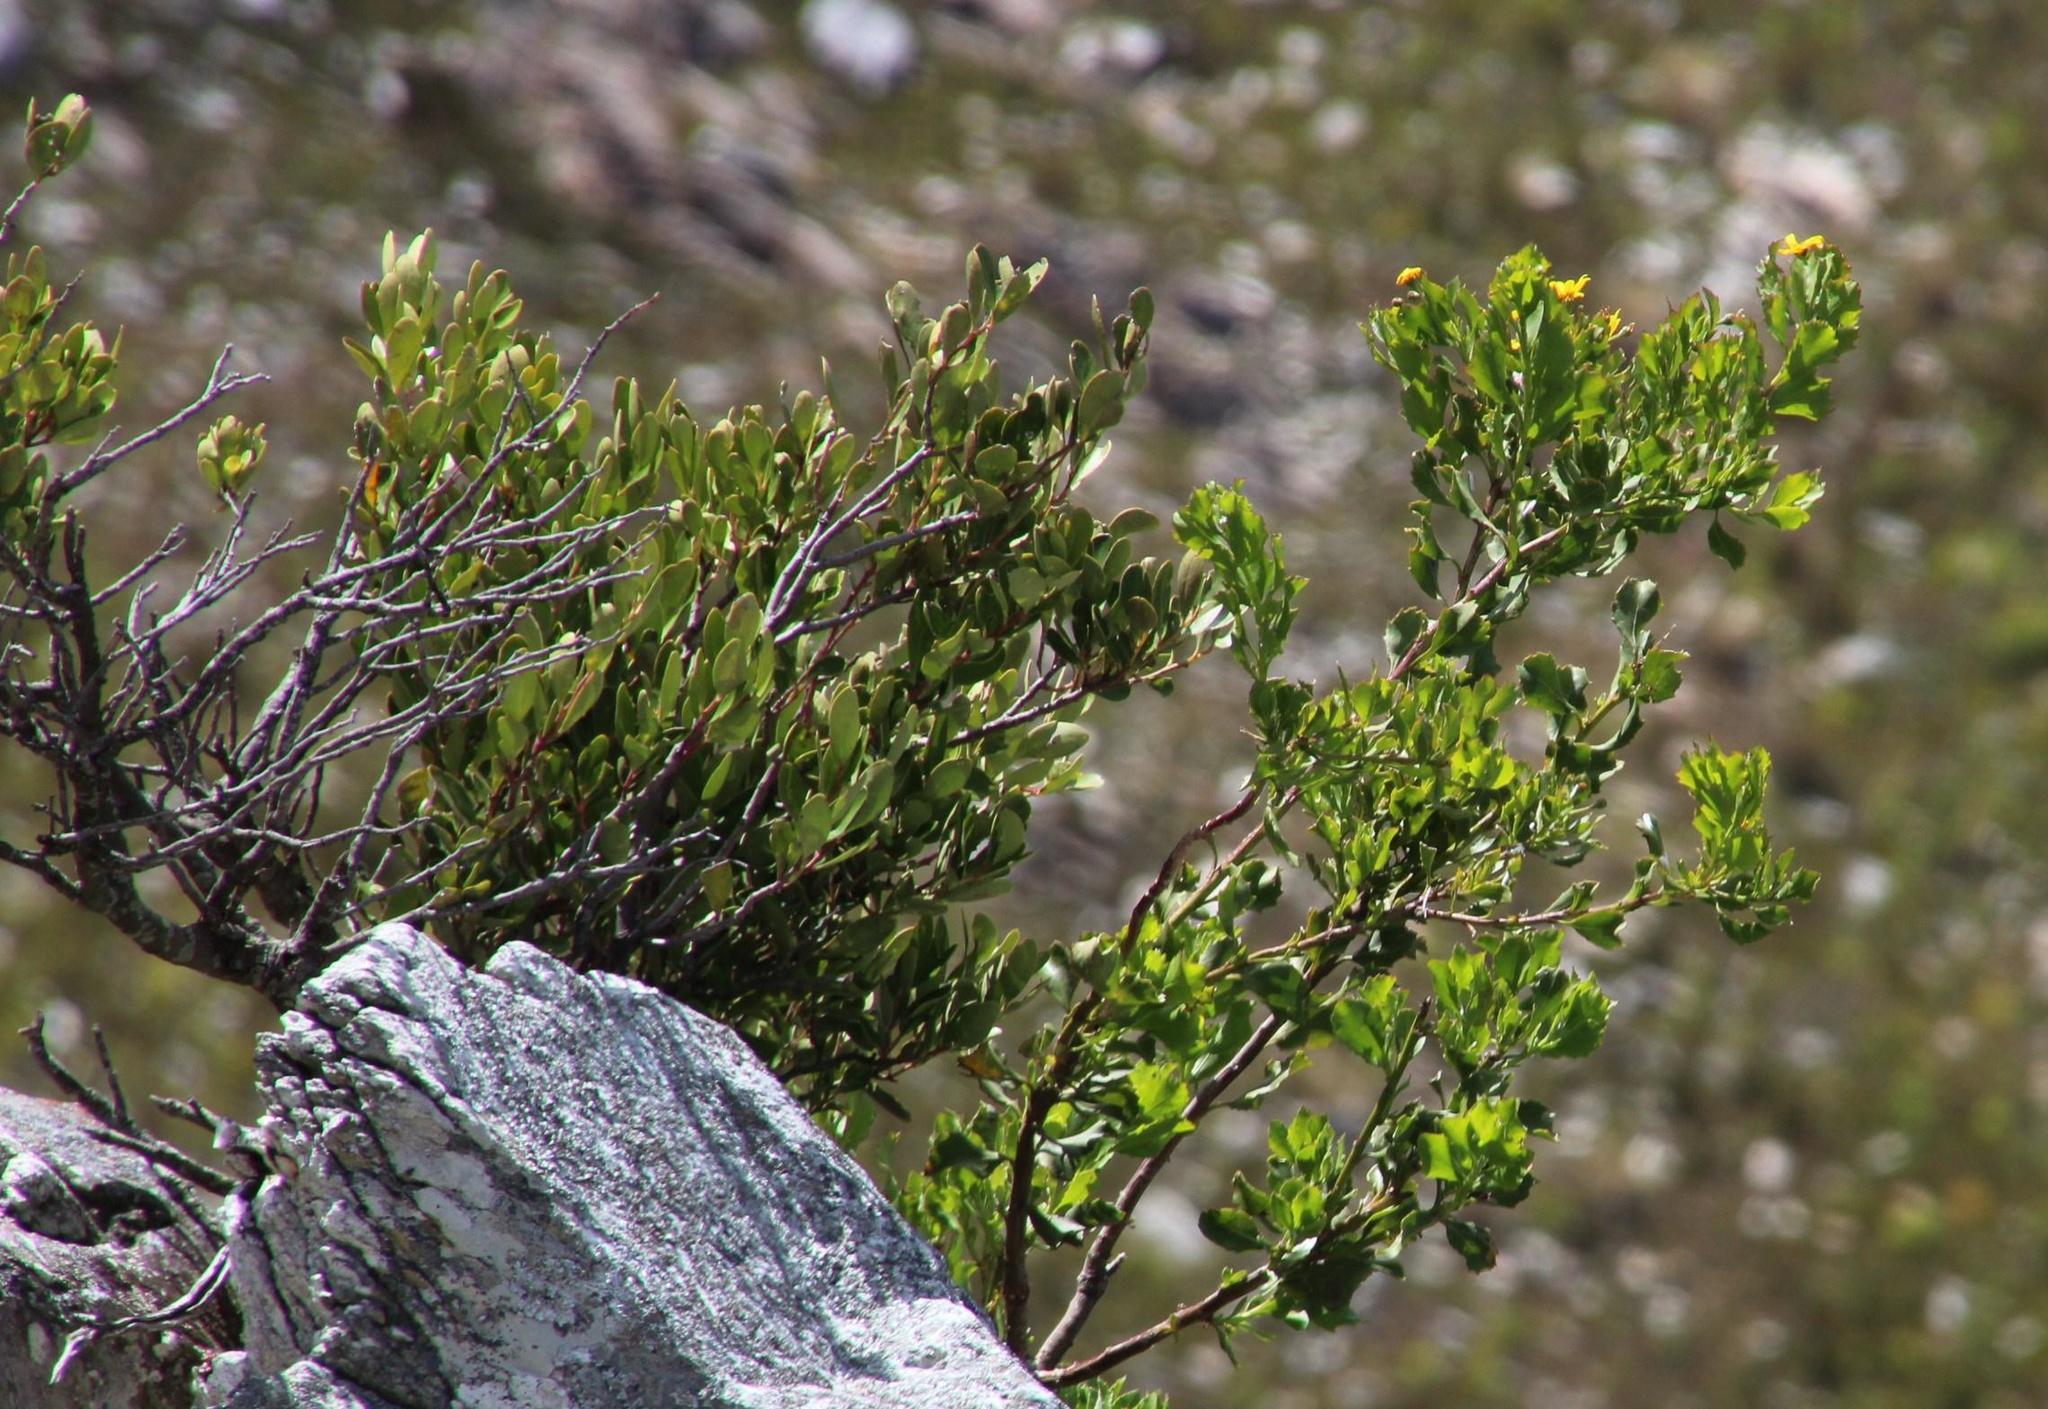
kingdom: Plantae
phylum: Tracheophyta
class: Magnoliopsida
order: Asterales
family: Asteraceae
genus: Osteospermum
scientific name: Osteospermum moniliferum
